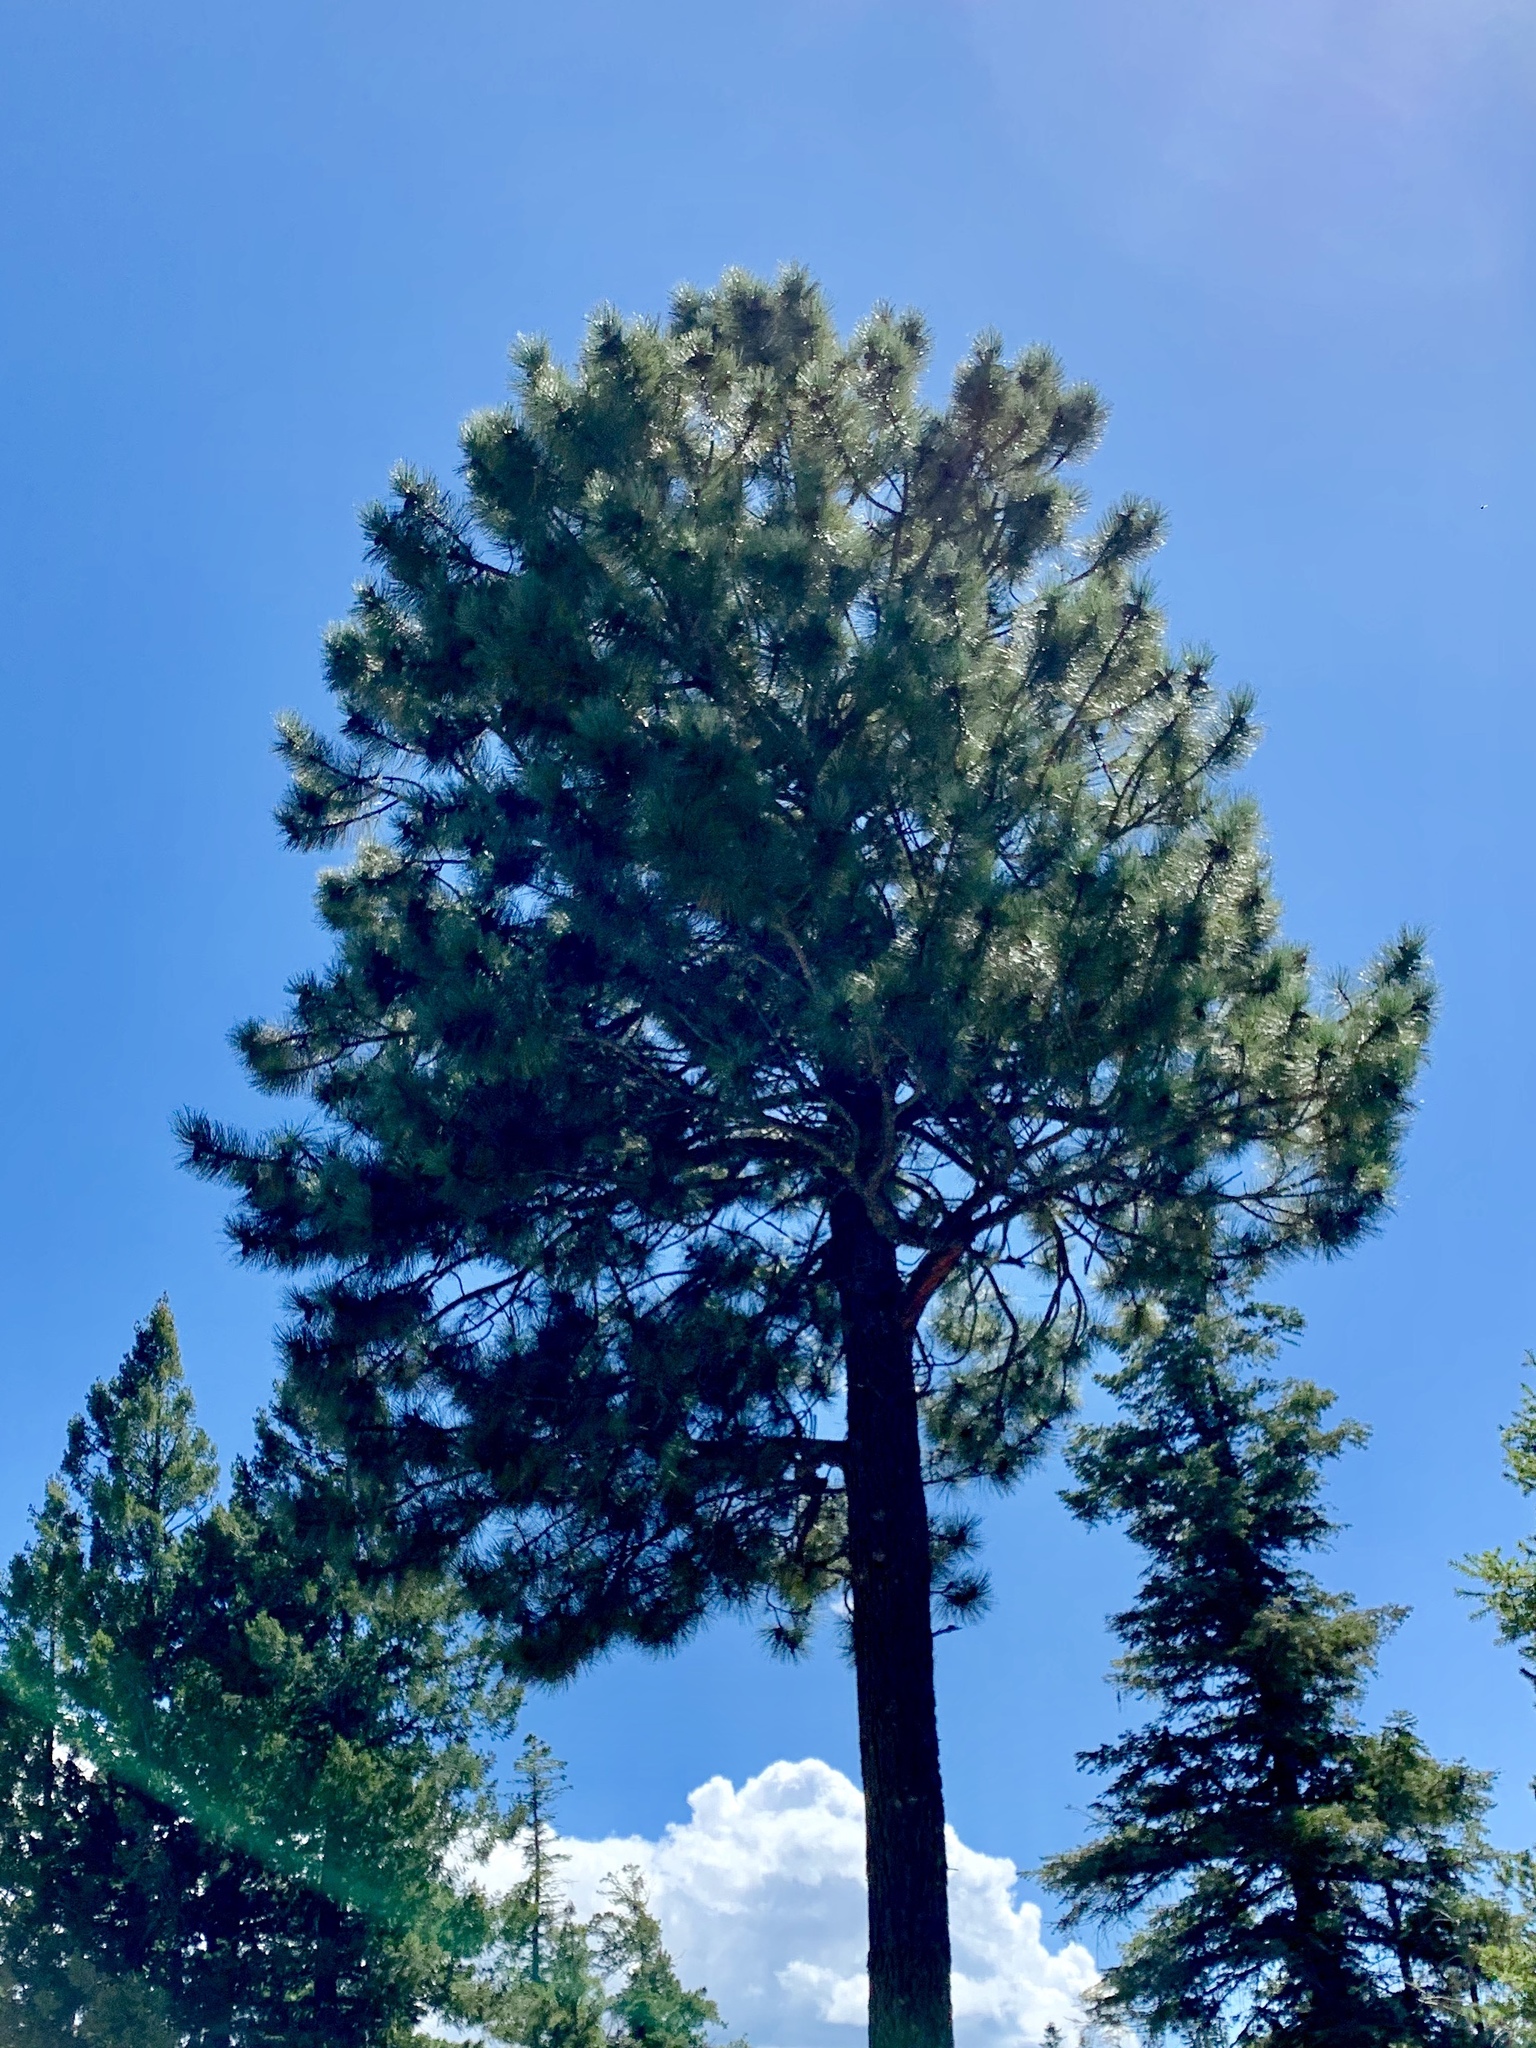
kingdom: Plantae
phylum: Tracheophyta
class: Pinopsida
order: Pinales
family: Pinaceae
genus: Pinus
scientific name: Pinus ponderosa
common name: Western yellow-pine
